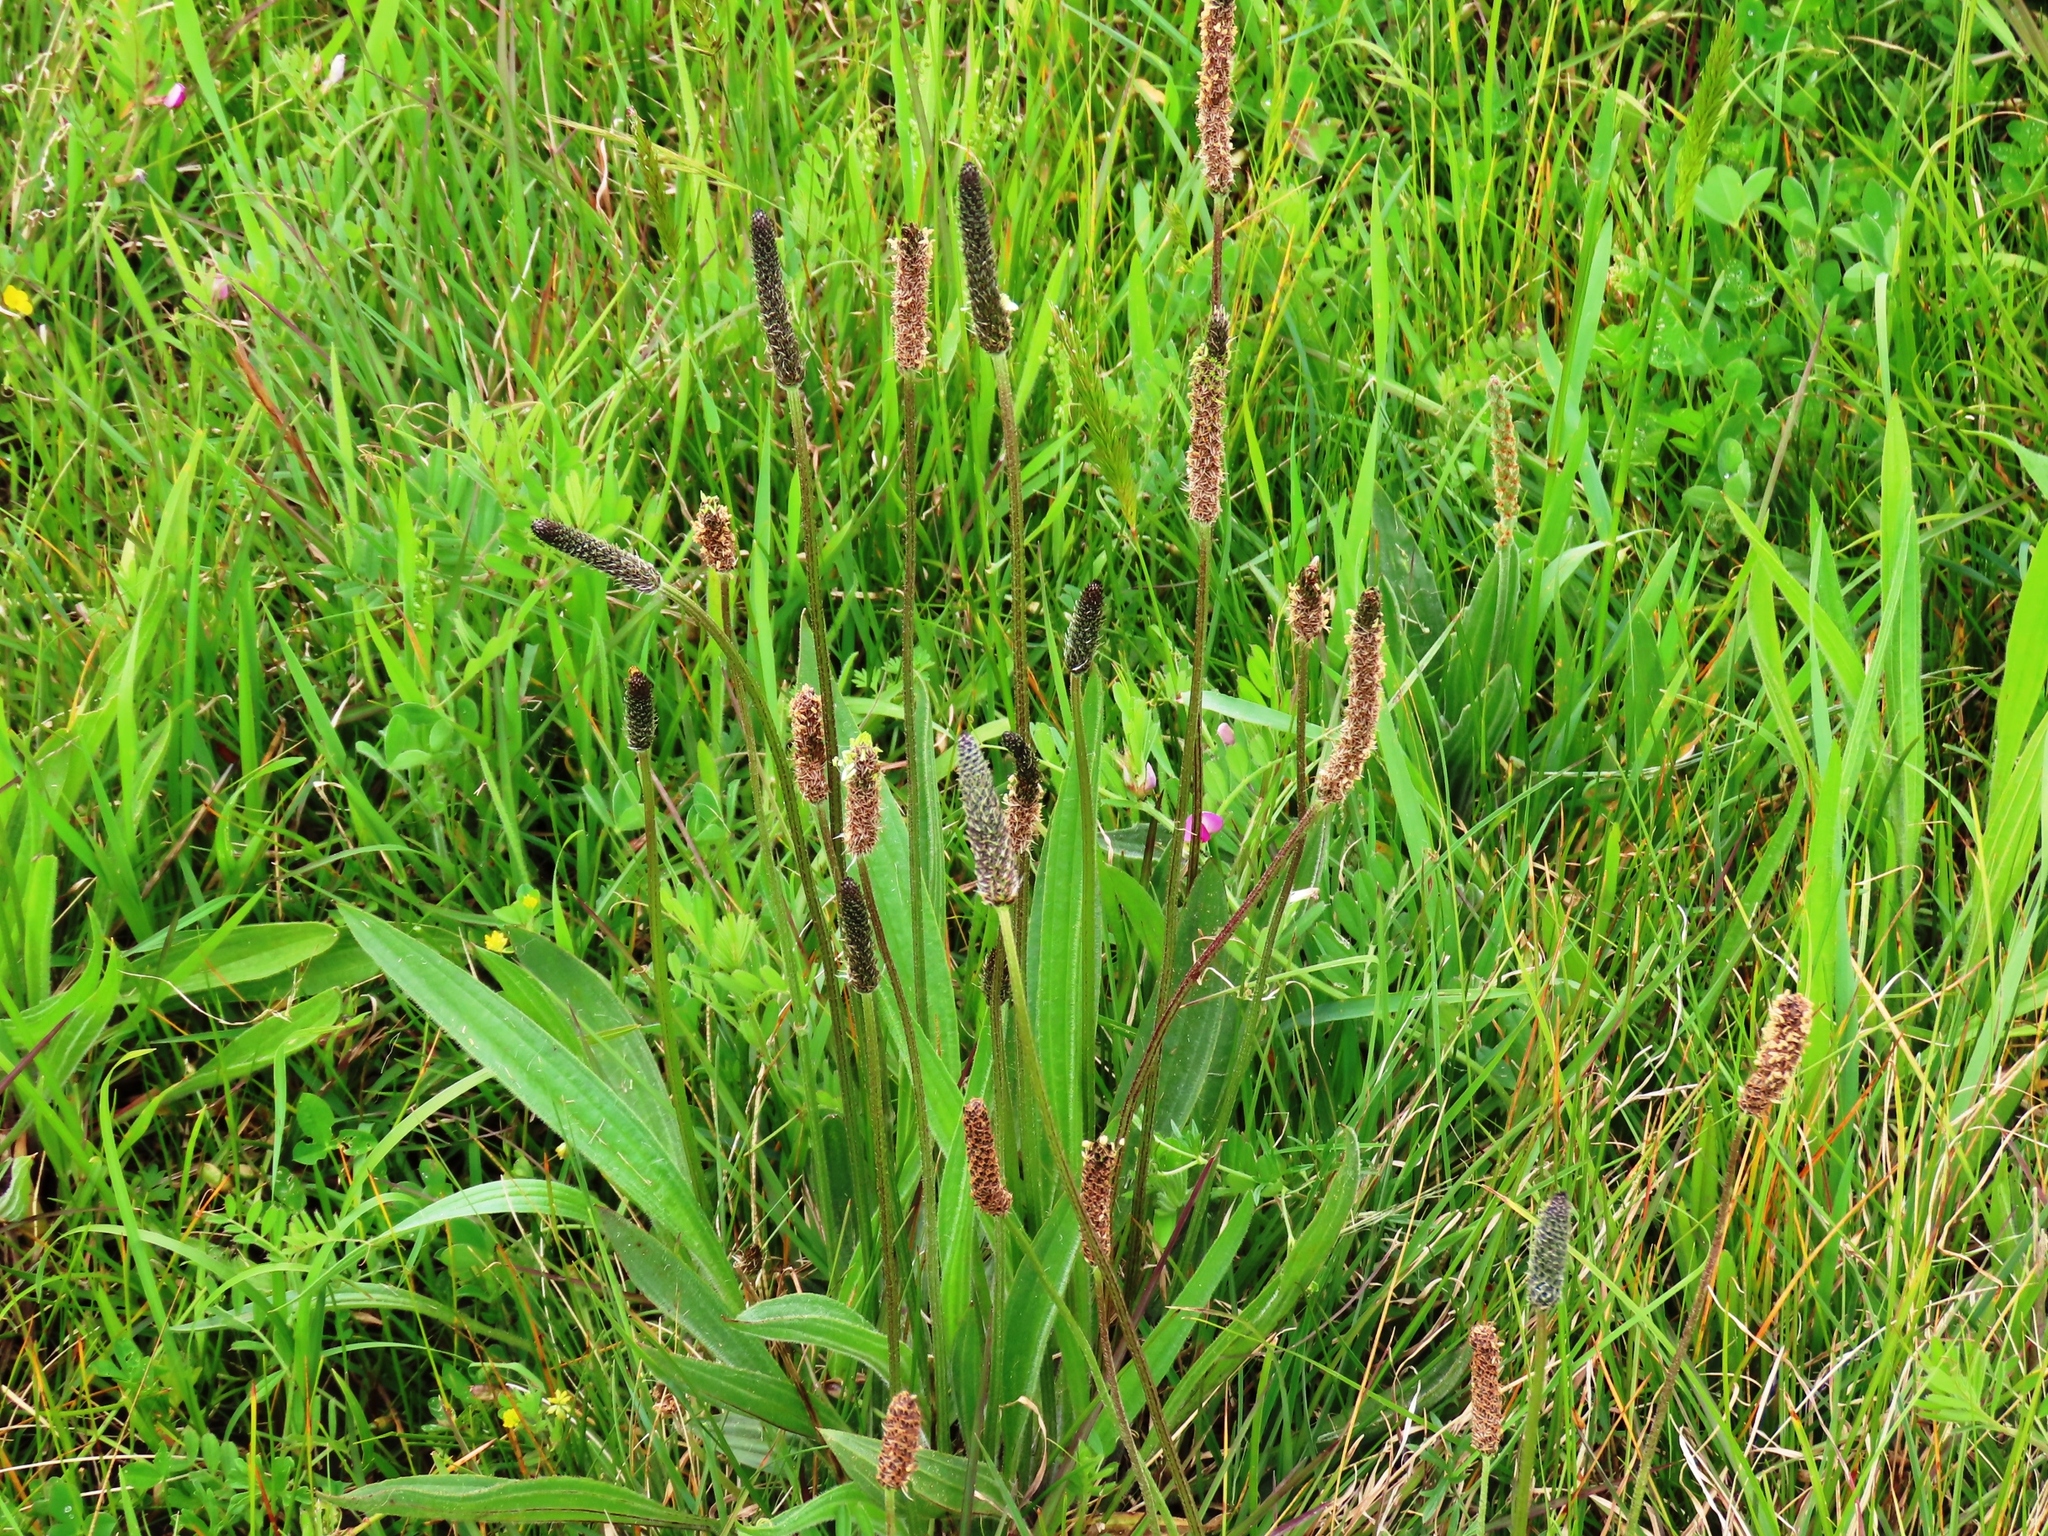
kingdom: Plantae
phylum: Tracheophyta
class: Magnoliopsida
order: Lamiales
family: Plantaginaceae
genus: Plantago
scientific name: Plantago lanceolata
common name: Ribwort plantain
